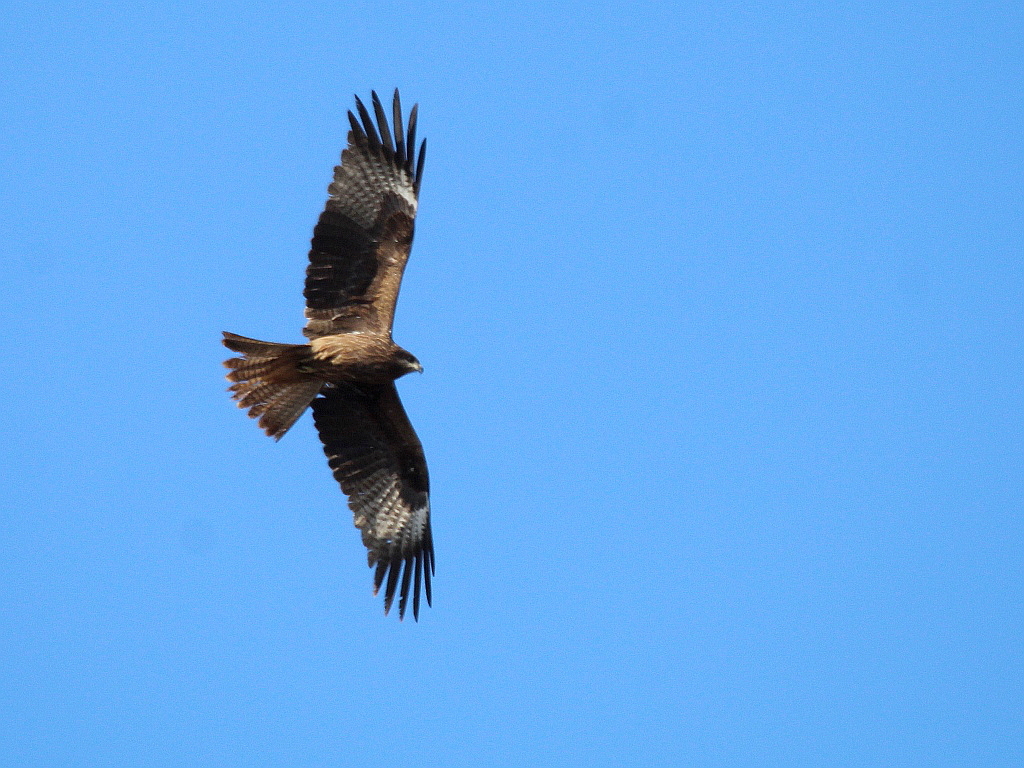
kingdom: Animalia
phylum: Chordata
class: Aves
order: Accipitriformes
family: Accipitridae
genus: Milvus
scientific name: Milvus migrans
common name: Black kite
